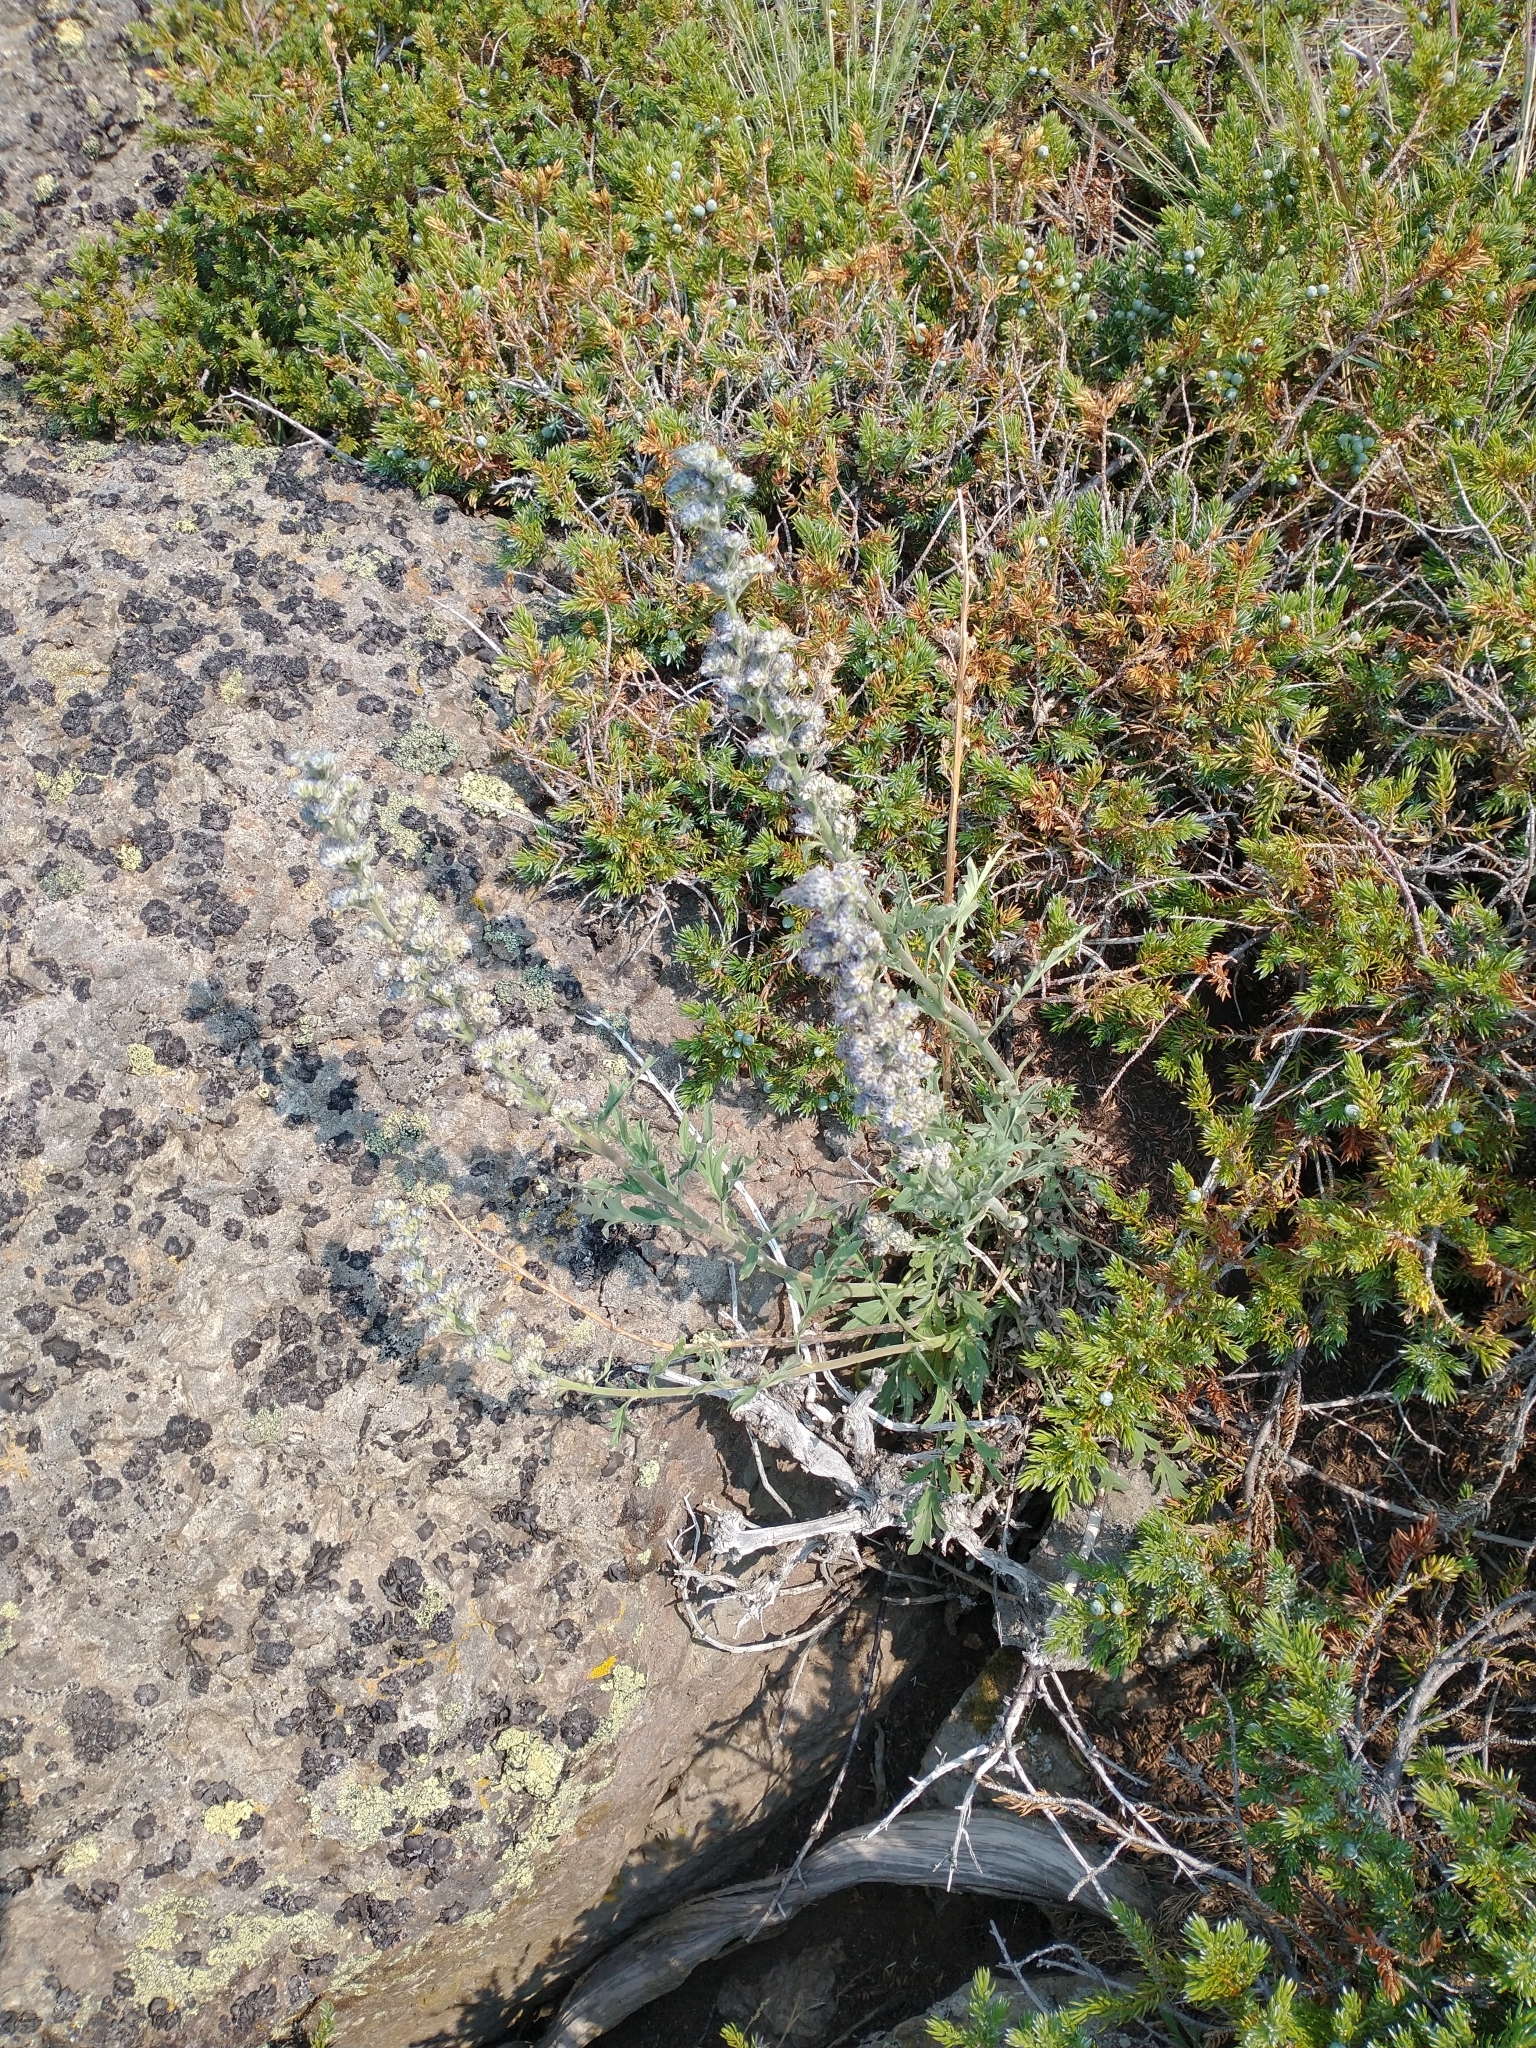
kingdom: Plantae
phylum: Tracheophyta
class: Magnoliopsida
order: Boraginales
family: Hydrophyllaceae
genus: Phacelia
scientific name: Phacelia sericea
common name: Silky phacelia
